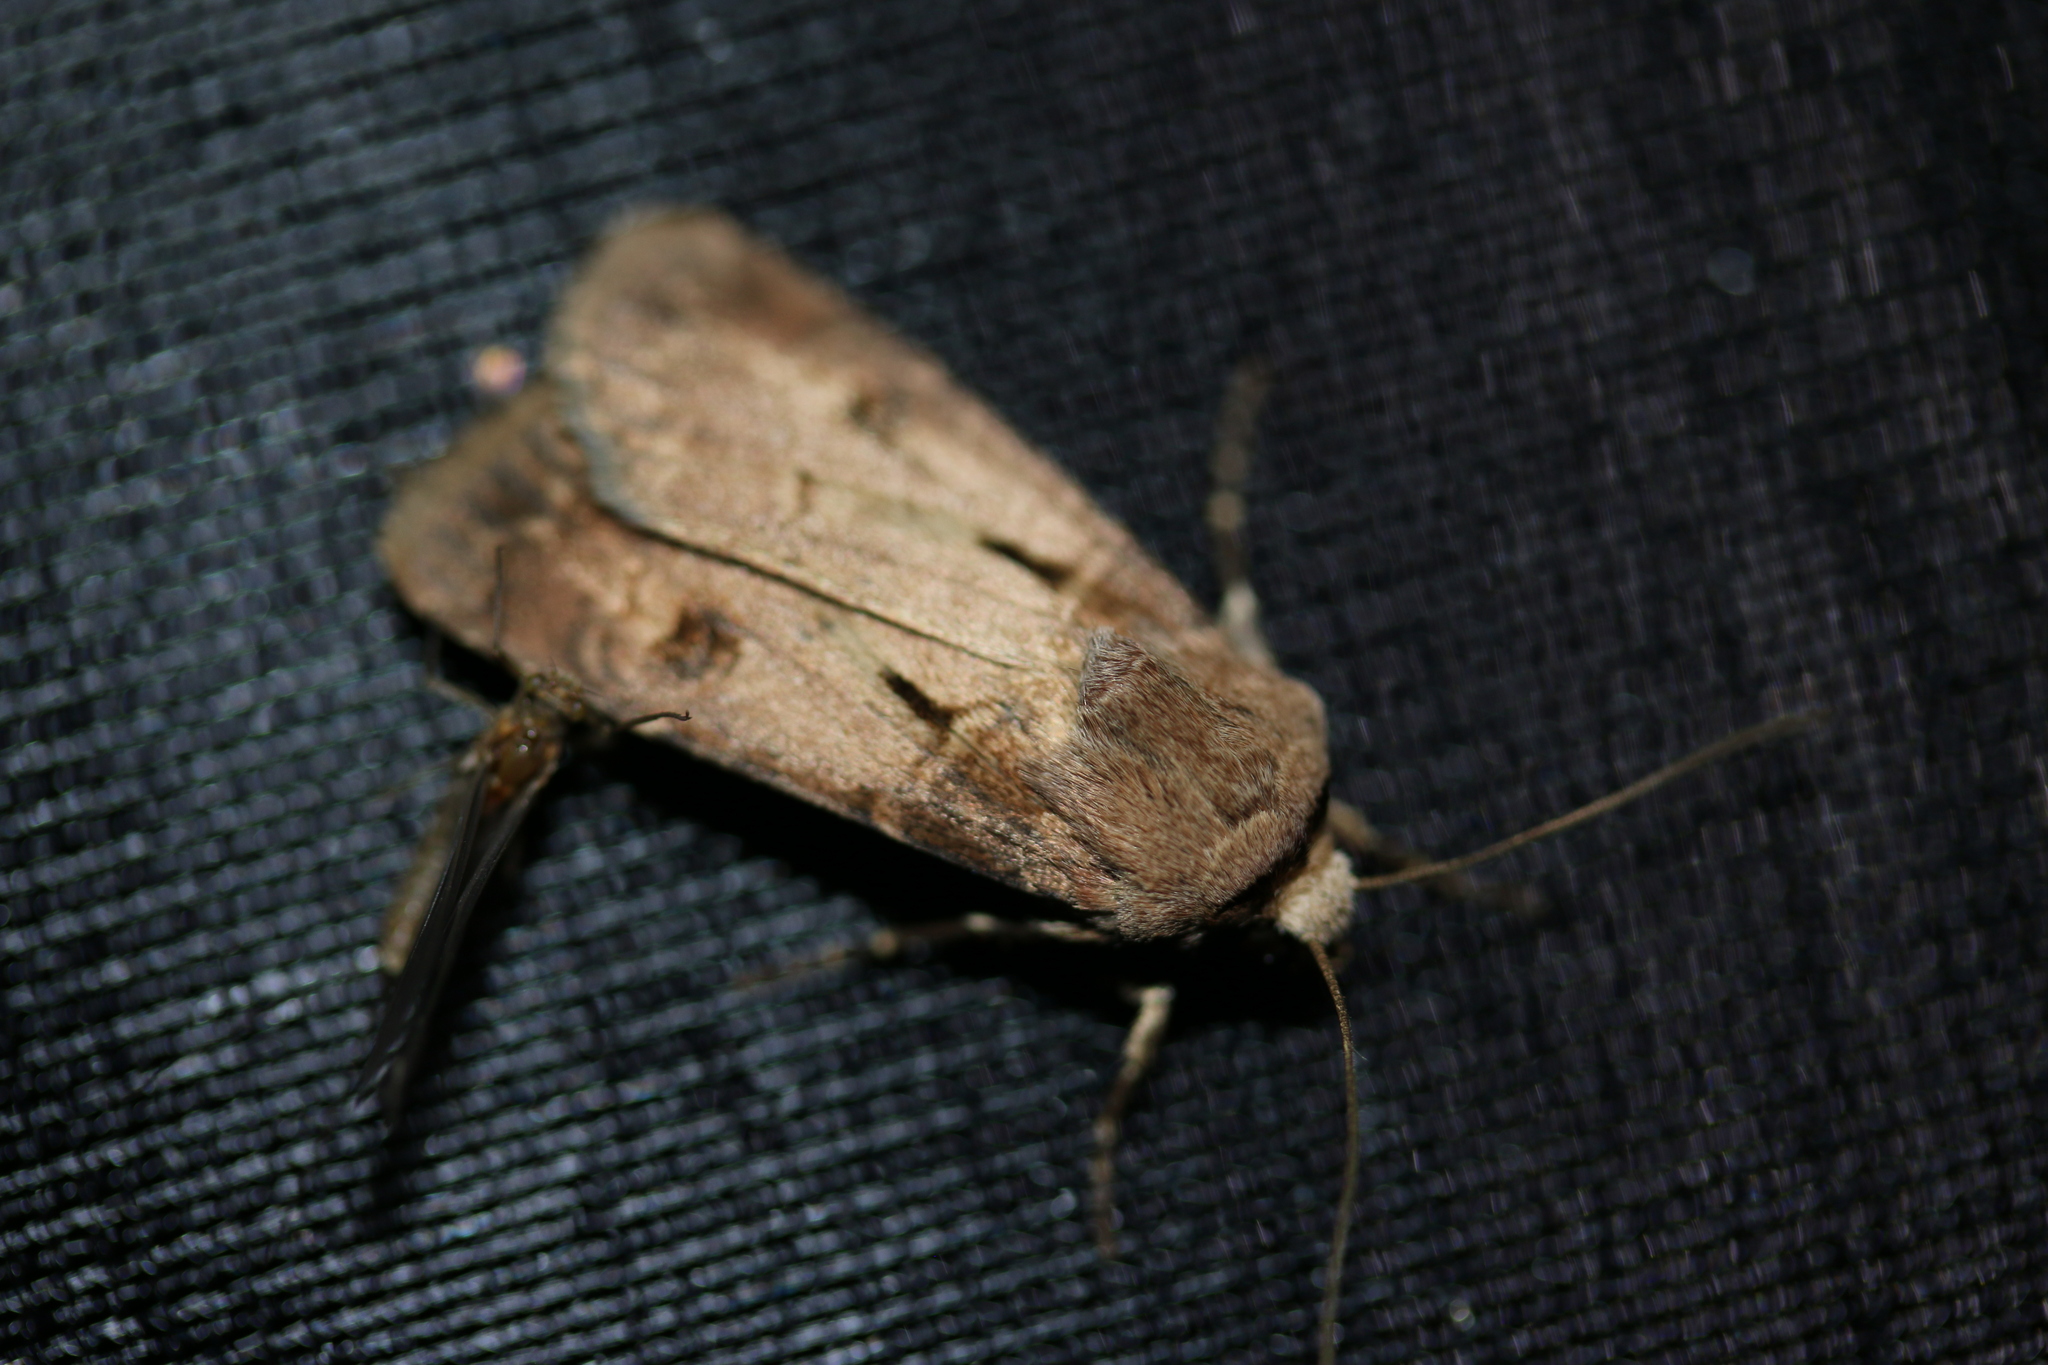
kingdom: Animalia
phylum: Arthropoda
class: Insecta
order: Lepidoptera
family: Noctuidae
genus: Agrotis
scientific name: Agrotis exclamationis
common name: Heart and dart
